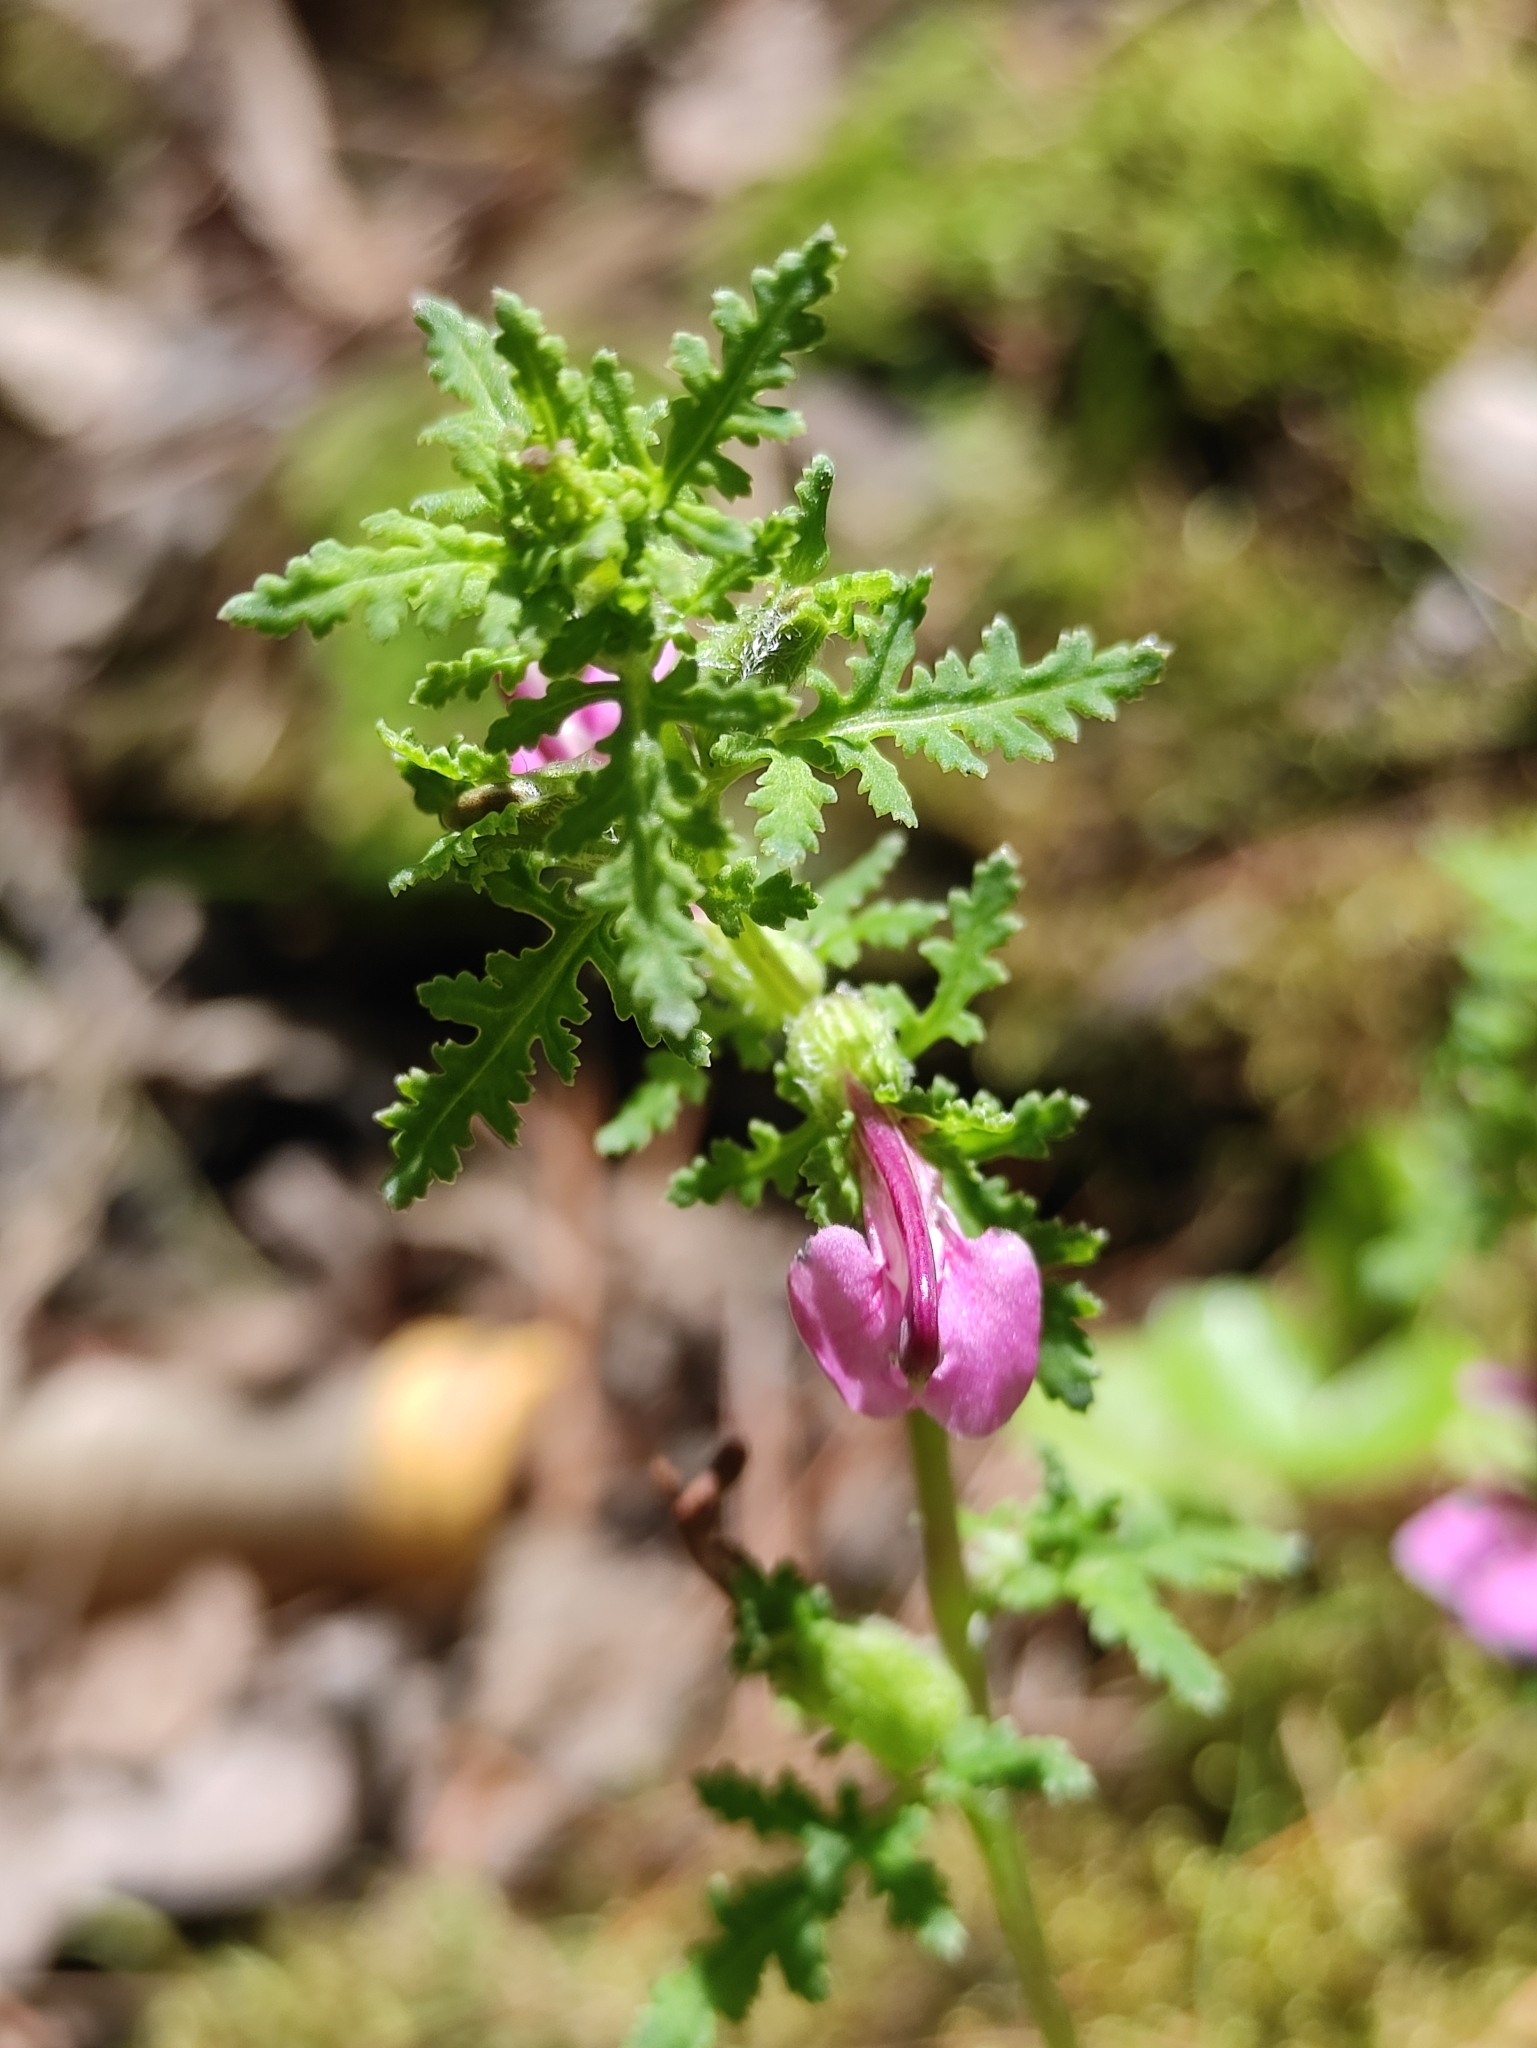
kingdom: Plantae
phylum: Tracheophyta
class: Magnoliopsida
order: Lamiales
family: Orobanchaceae
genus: Pedicularis
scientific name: Pedicularis karoi
